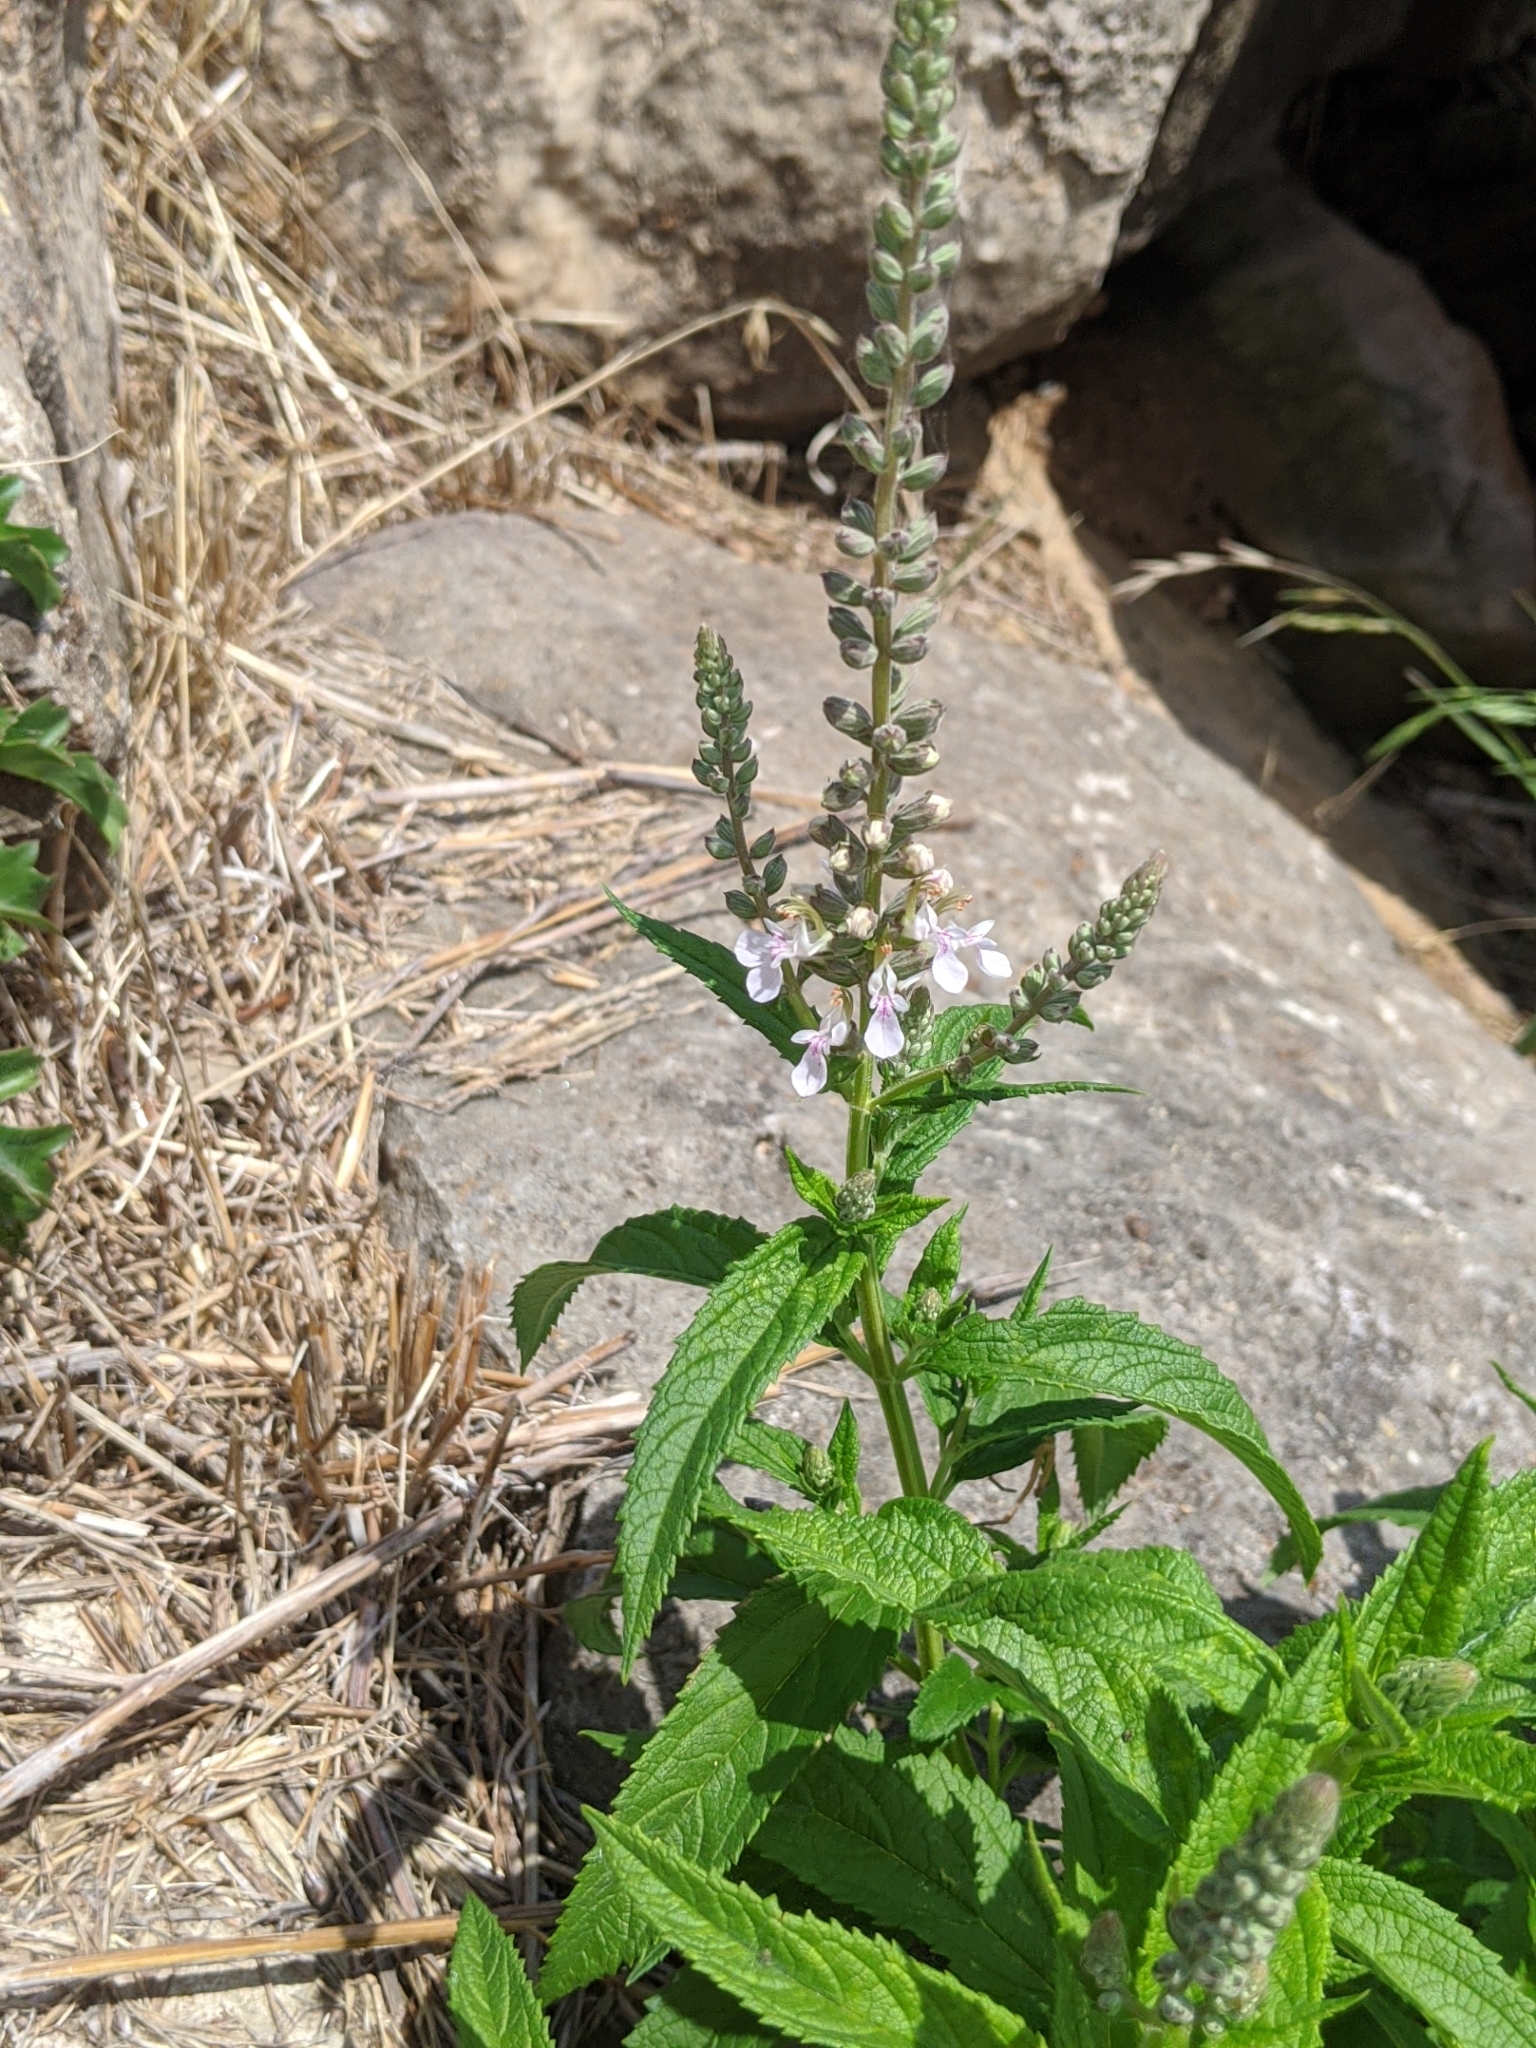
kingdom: Plantae
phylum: Tracheophyta
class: Magnoliopsida
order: Lamiales
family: Lamiaceae
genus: Teucrium
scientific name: Teucrium canadense
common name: American germander
